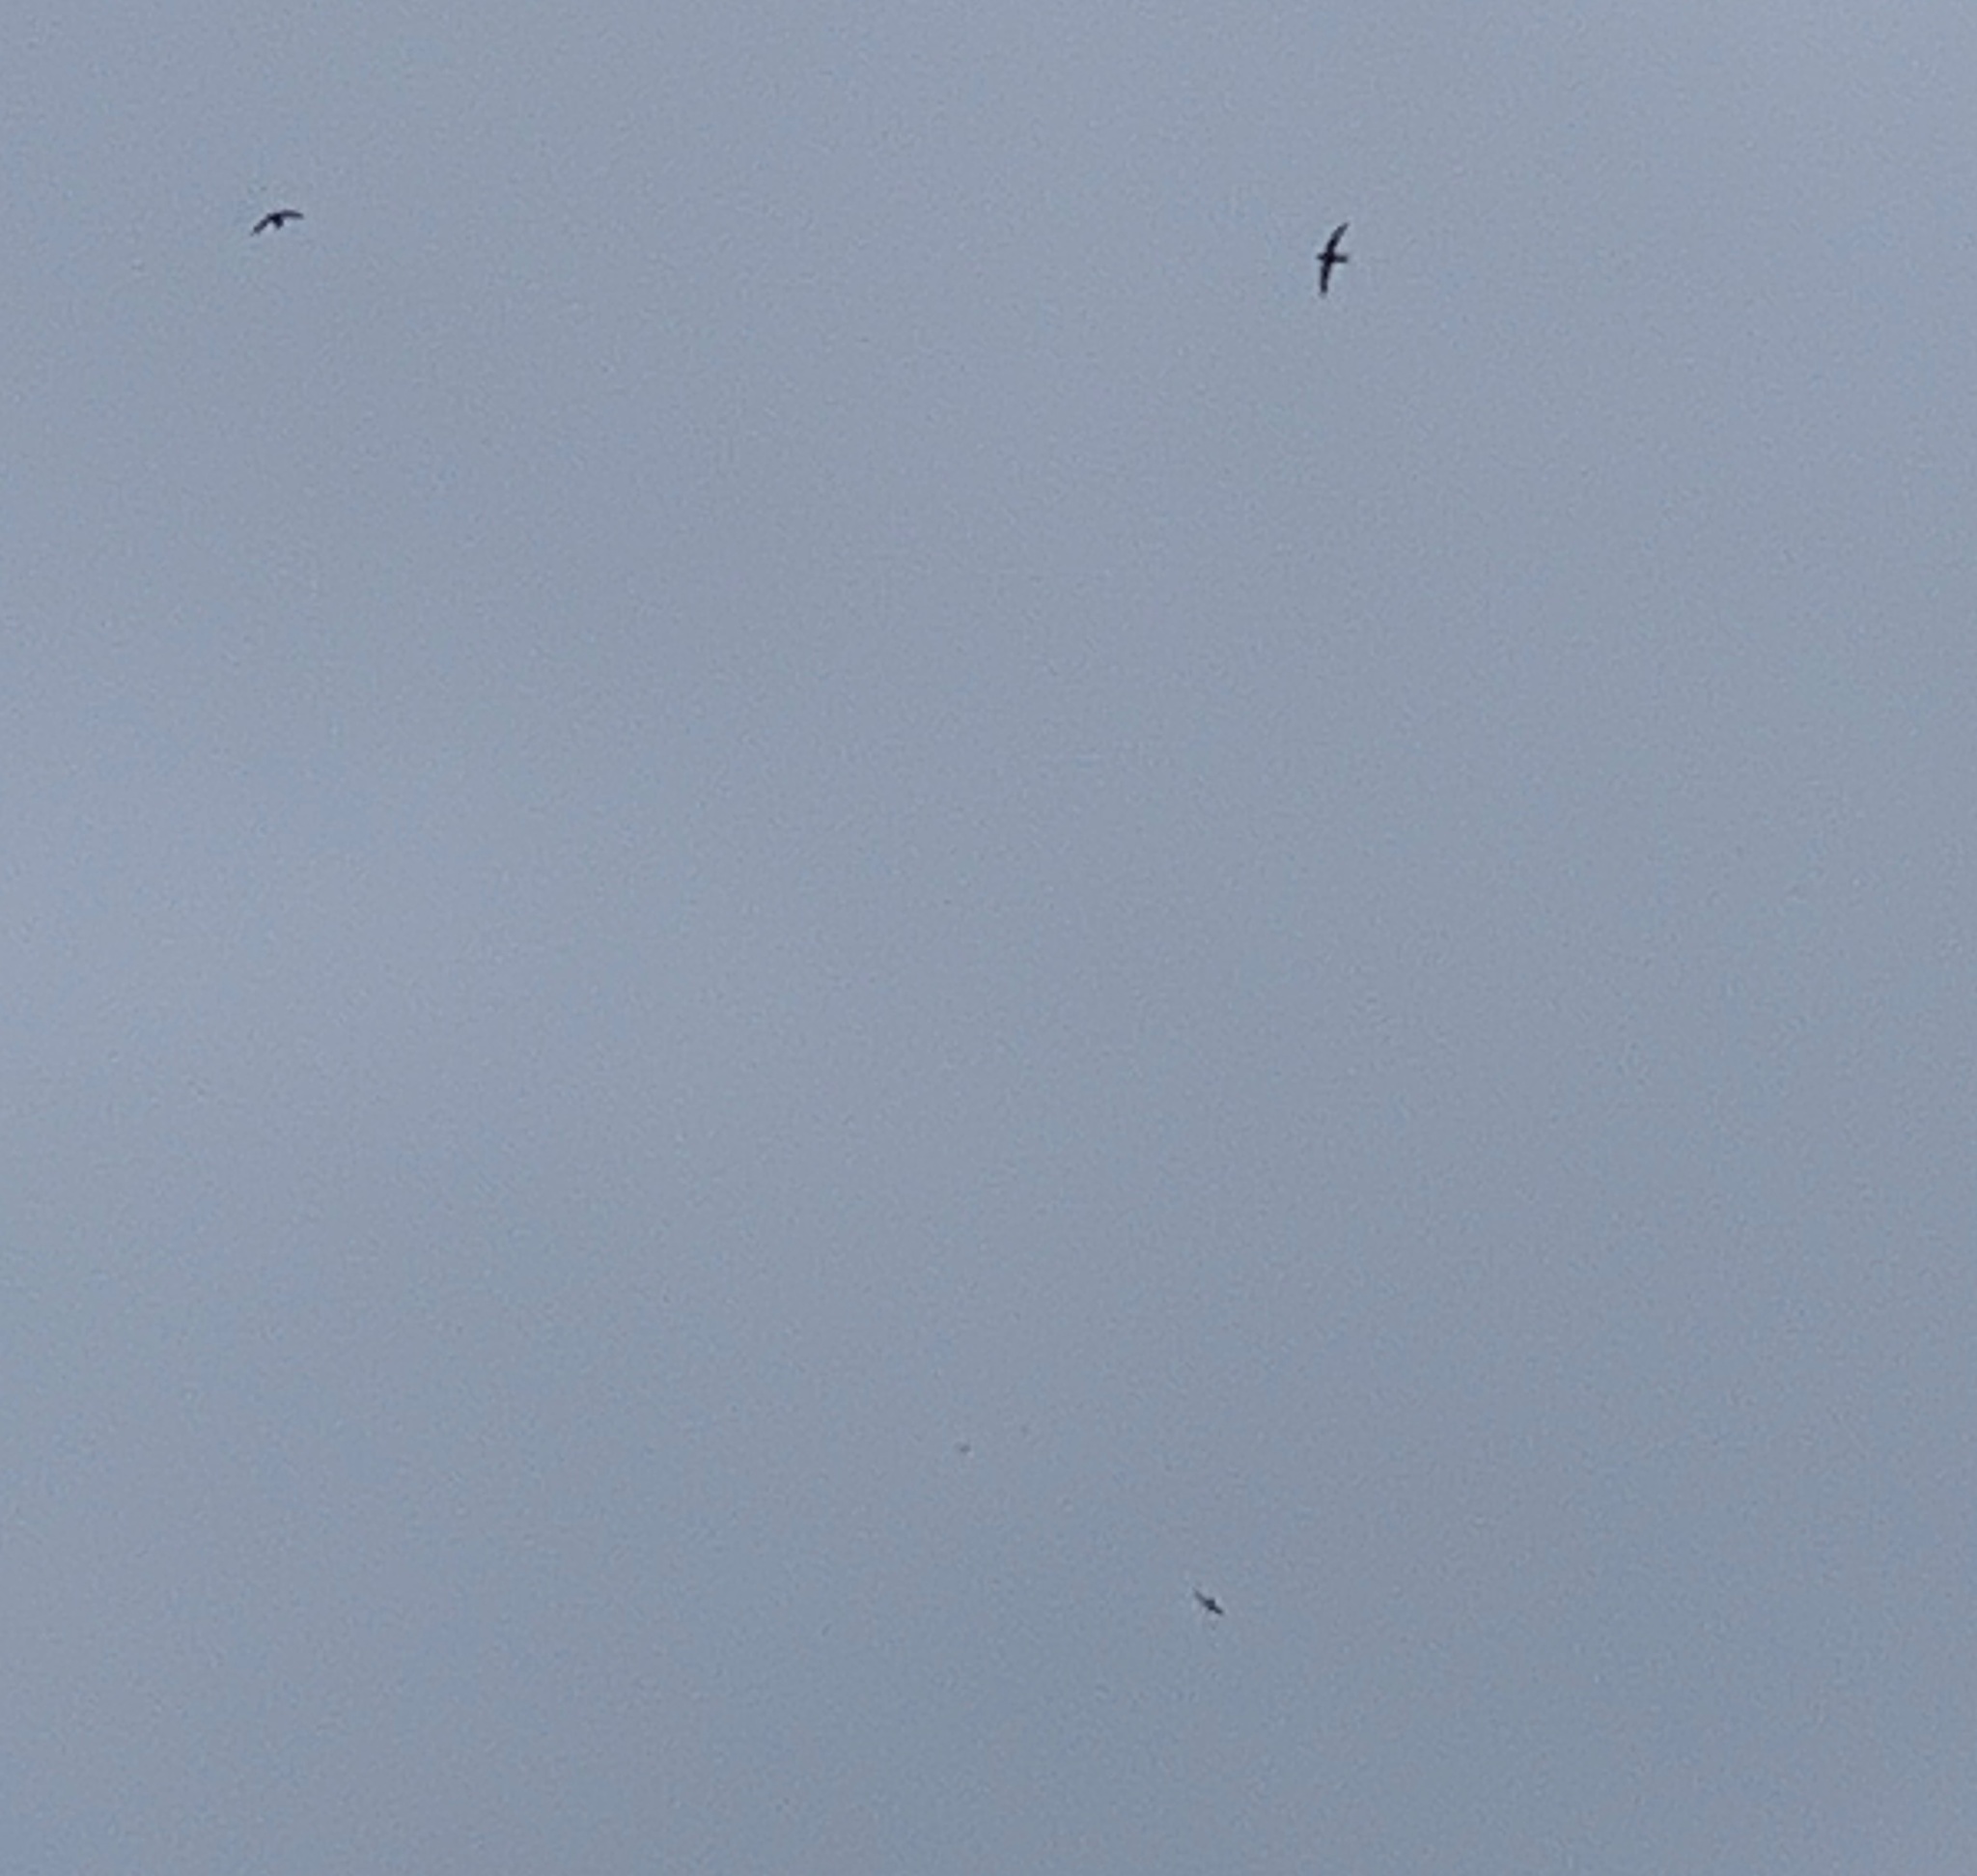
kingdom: Animalia
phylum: Chordata
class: Aves
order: Apodiformes
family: Apodidae
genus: Apus
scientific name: Apus apus
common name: Common swift
